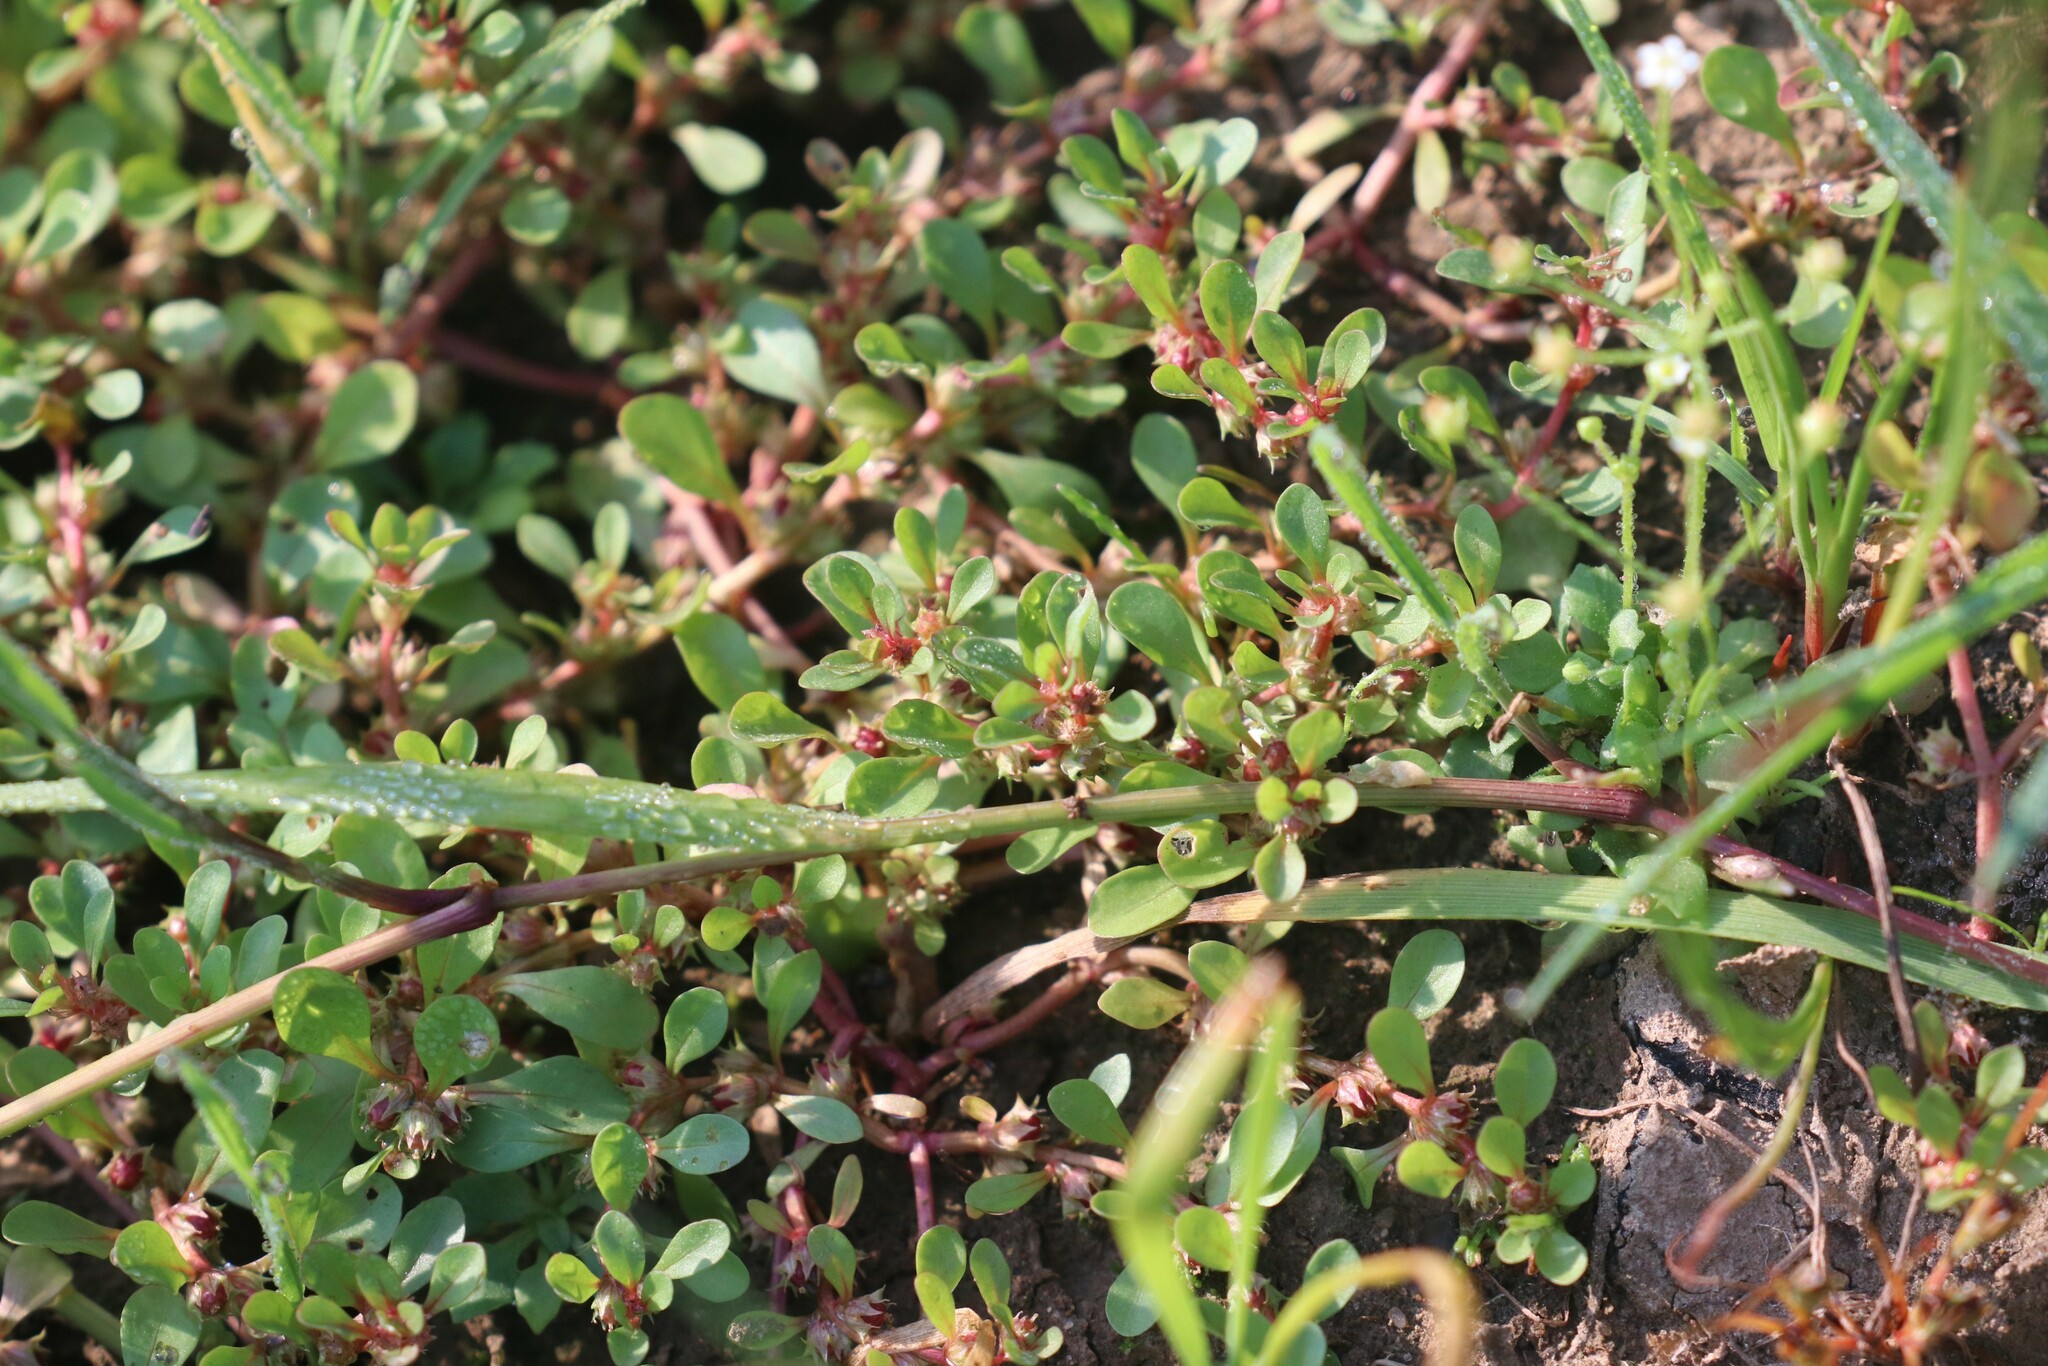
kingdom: Plantae
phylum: Tracheophyta
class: Magnoliopsida
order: Myrtales
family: Lythraceae
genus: Lythrum
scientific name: Lythrum portula
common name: Water purslane
